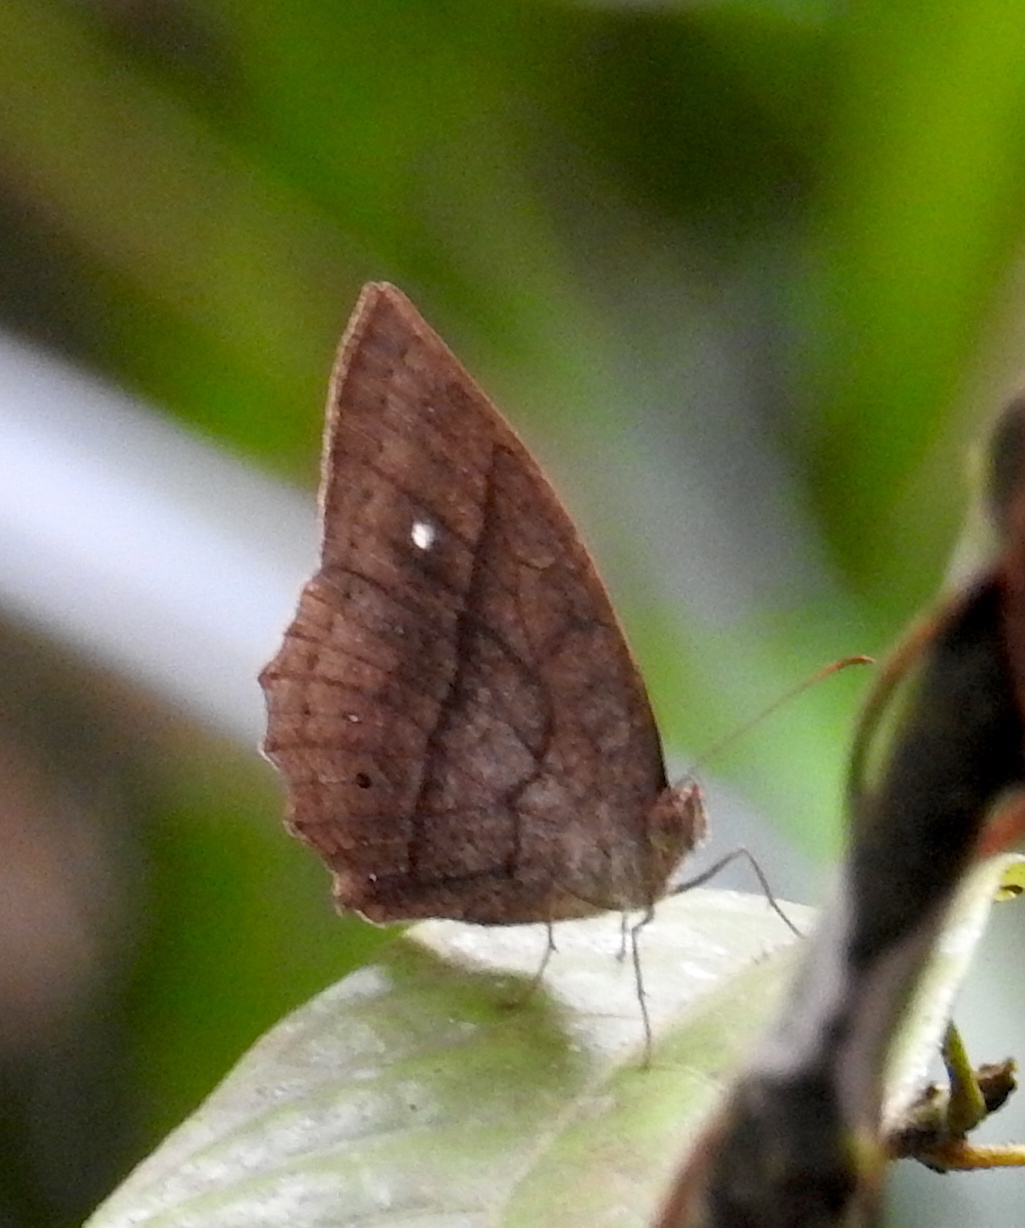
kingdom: Animalia
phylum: Arthropoda
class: Insecta
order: Lepidoptera
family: Nymphalidae
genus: Mycalesis
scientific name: Mycalesis visala
